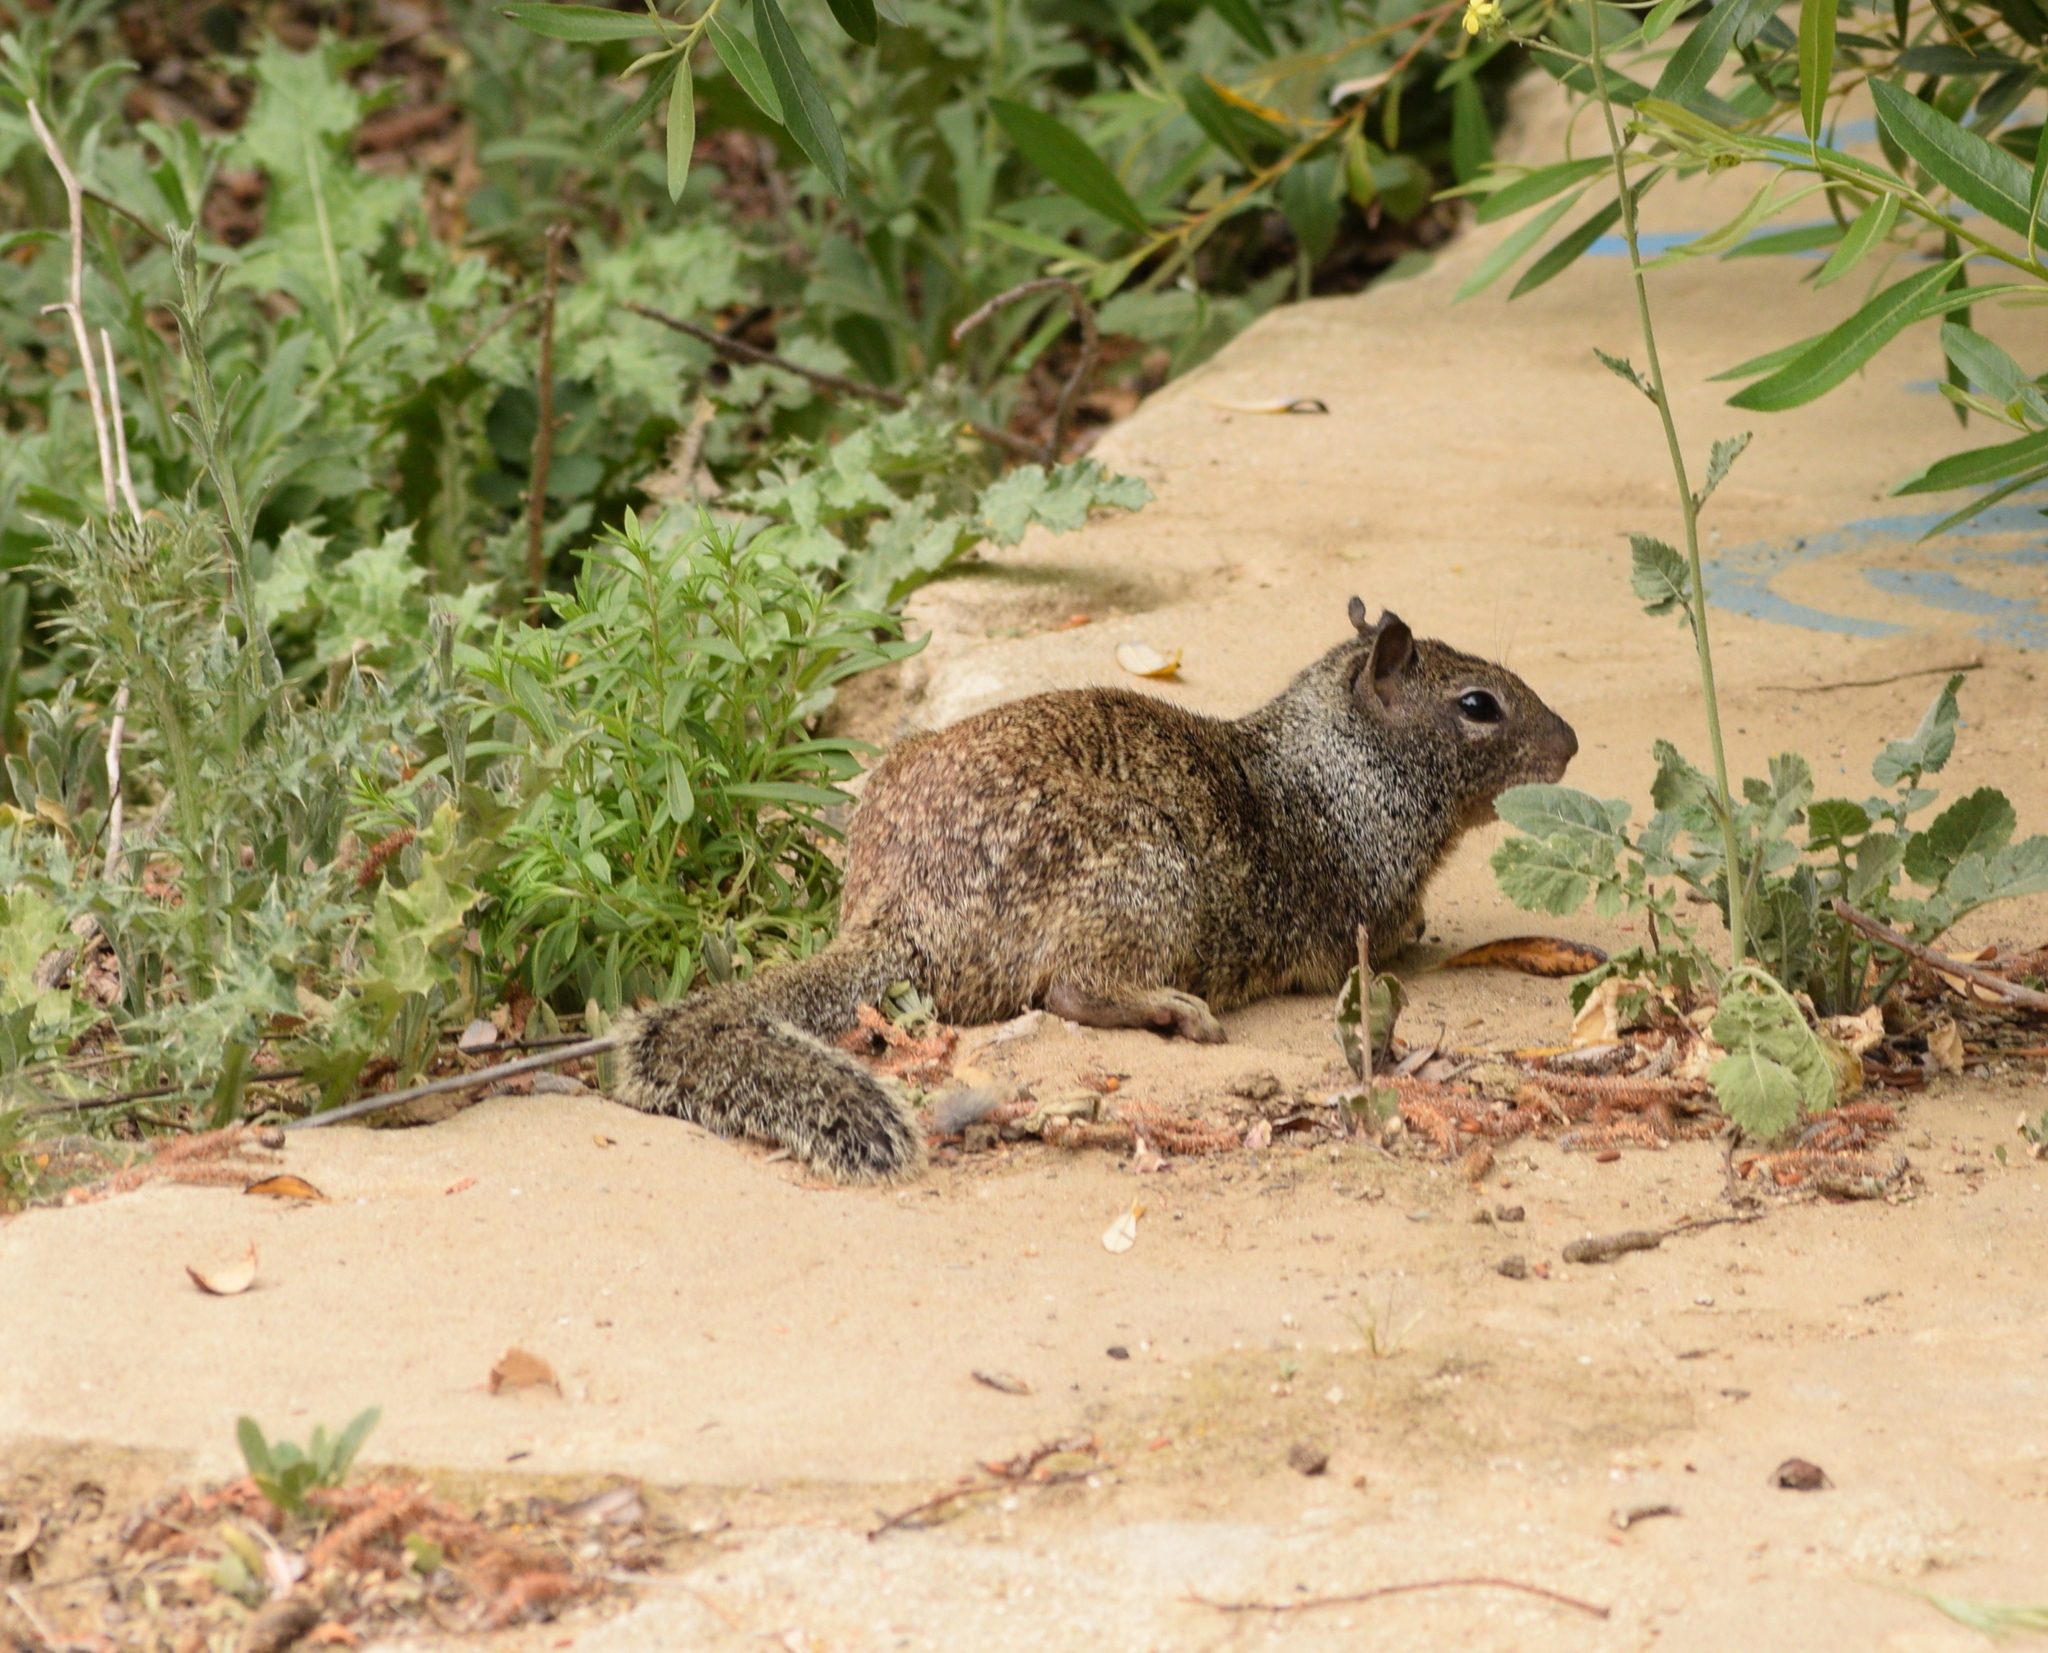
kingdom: Animalia
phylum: Chordata
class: Mammalia
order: Rodentia
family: Sciuridae
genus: Otospermophilus
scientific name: Otospermophilus beecheyi
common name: California ground squirrel
